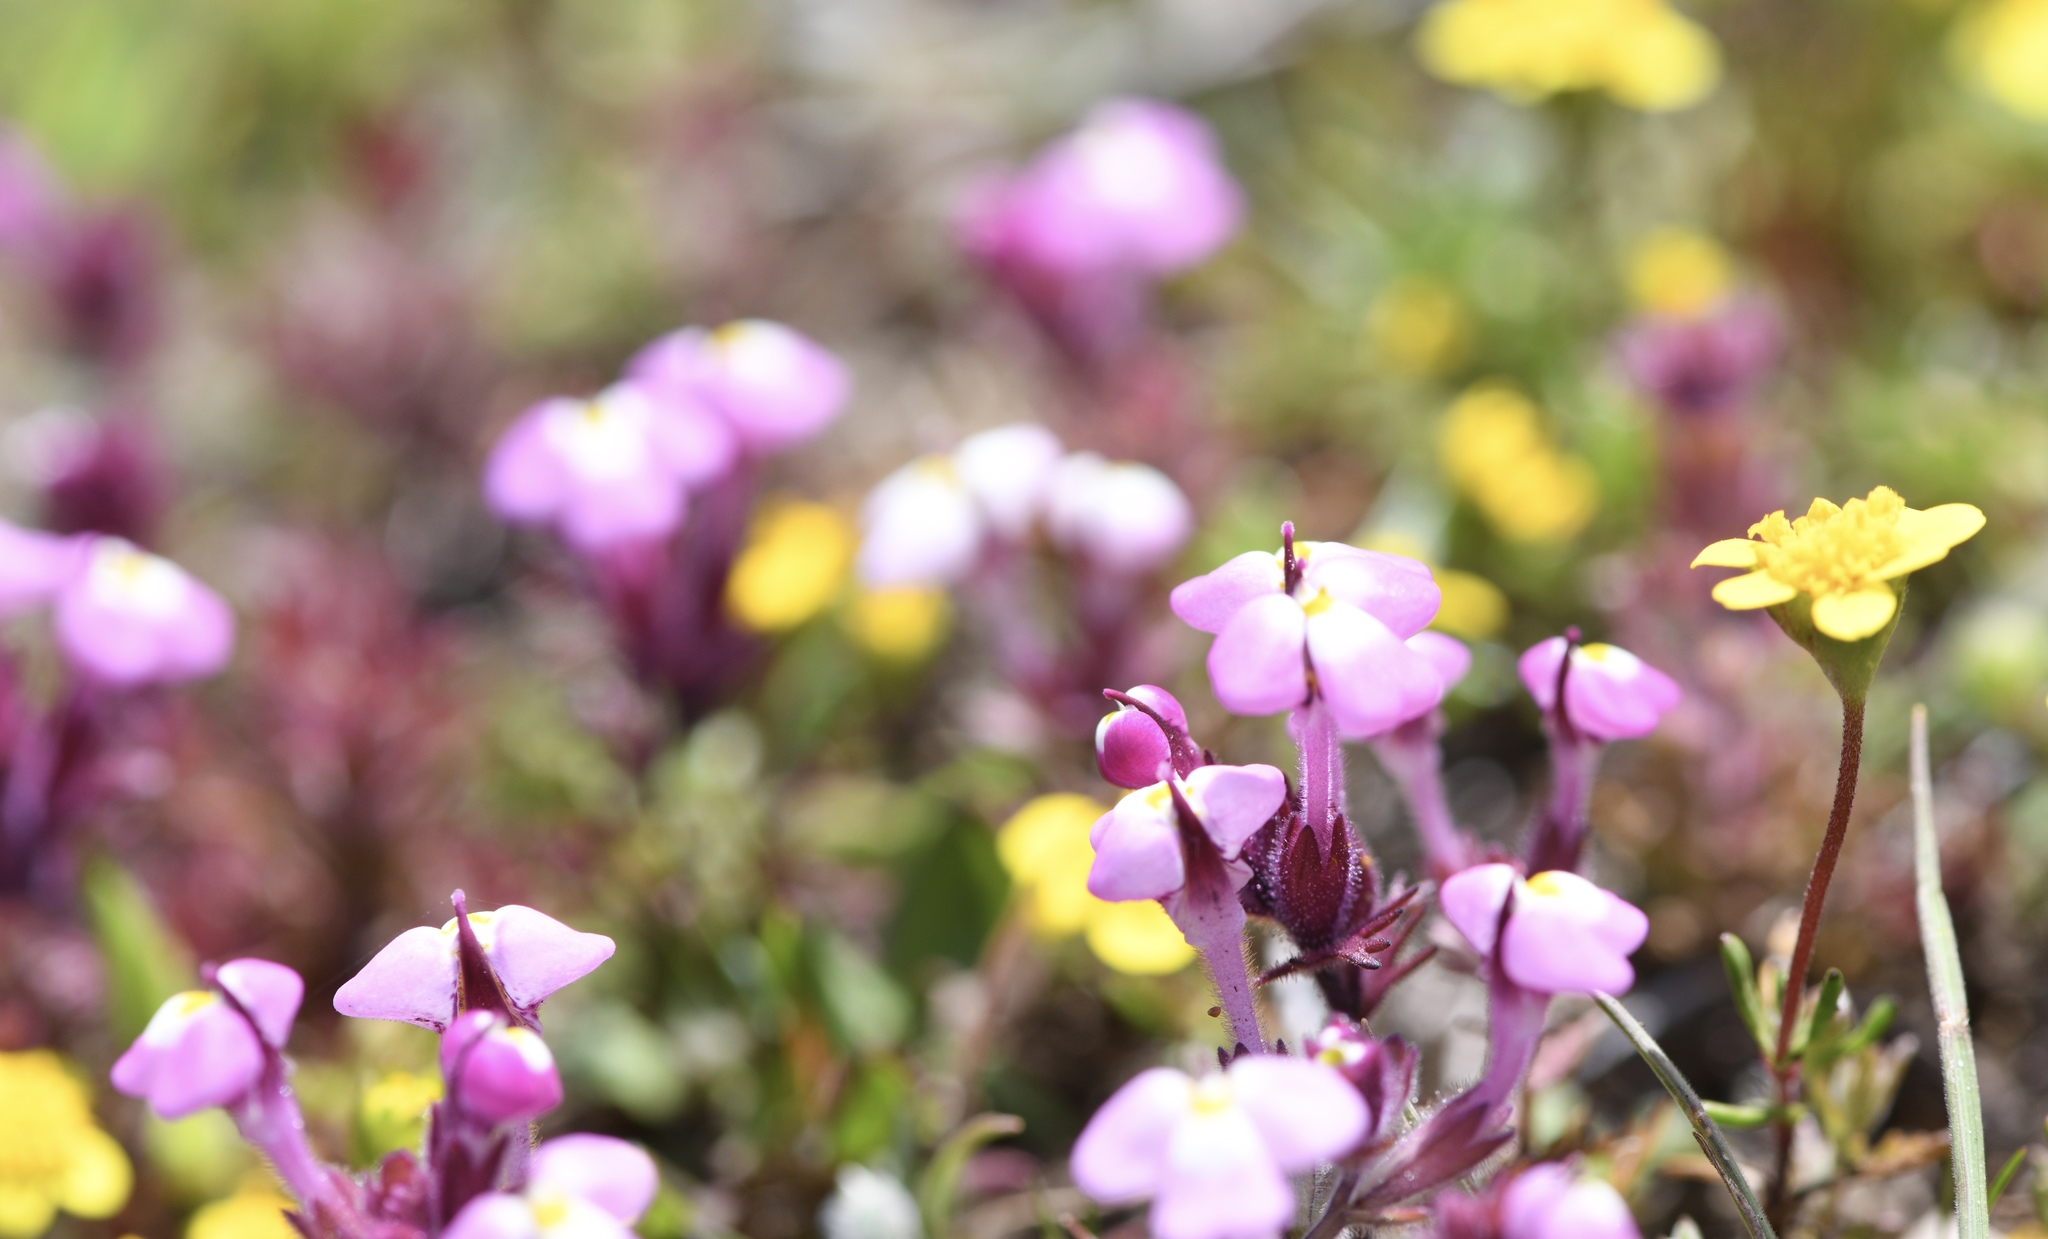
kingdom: Plantae
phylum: Tracheophyta
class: Magnoliopsida
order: Lamiales
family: Orobanchaceae
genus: Triphysaria
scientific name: Triphysaria eriantha
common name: Johnny-tuck
